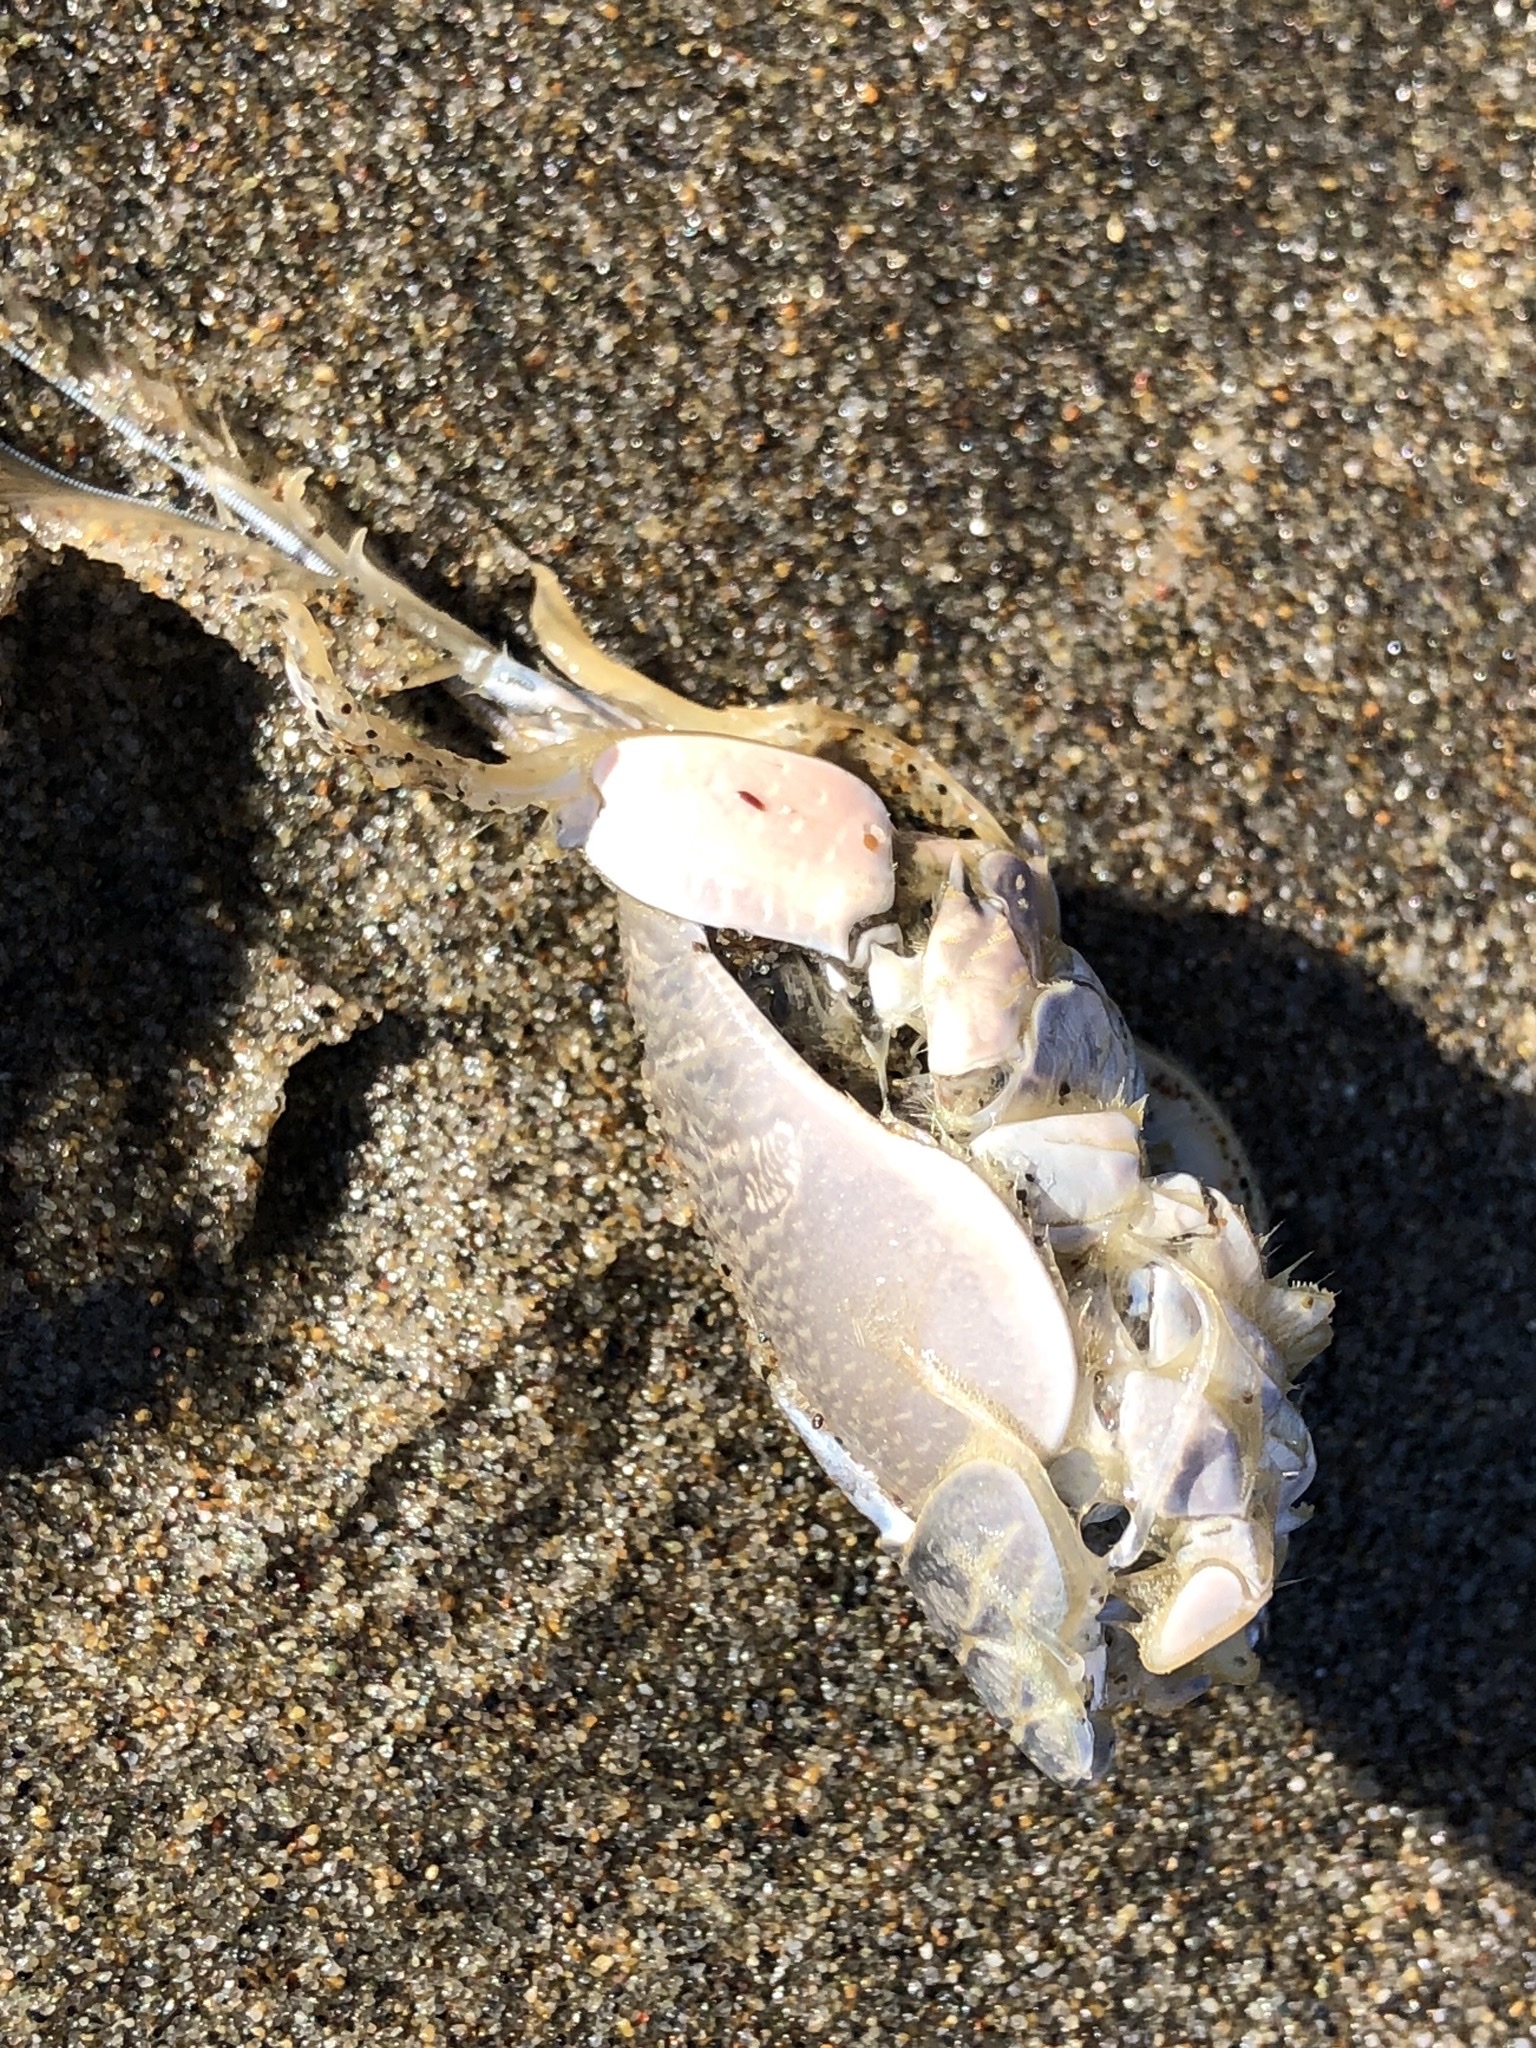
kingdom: Animalia
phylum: Arthropoda
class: Malacostraca
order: Decapoda
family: Hippidae
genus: Emerita
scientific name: Emerita analoga
